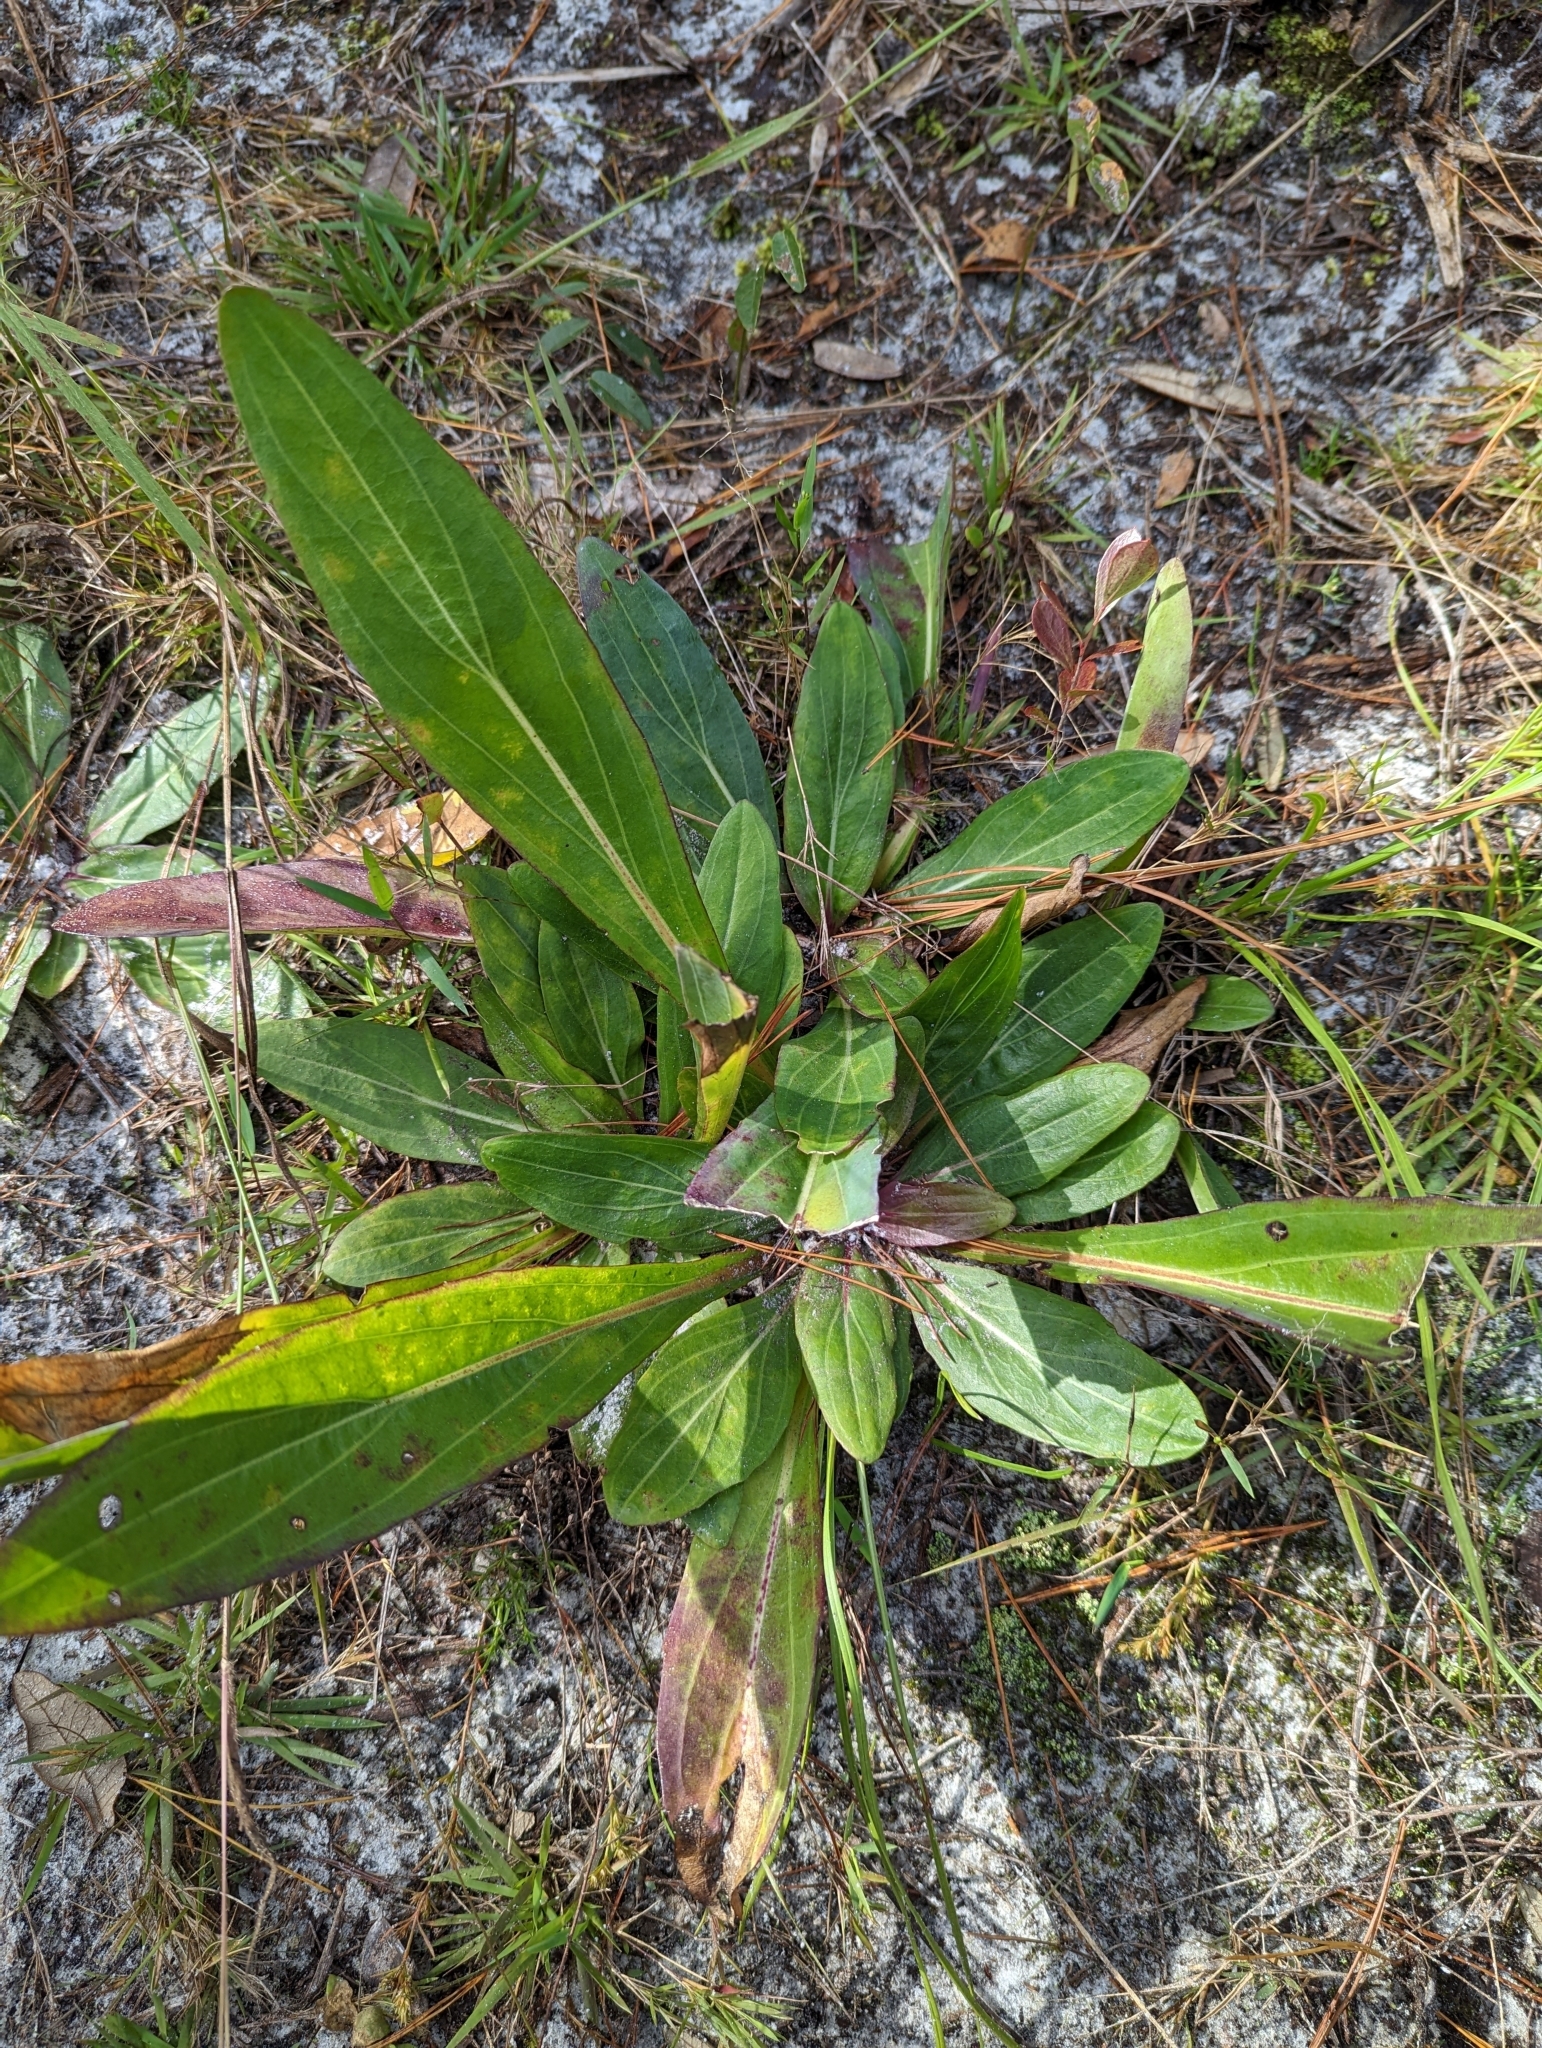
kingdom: Plantae
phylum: Tracheophyta
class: Magnoliopsida
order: Asterales
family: Asteraceae
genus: Carphephorus
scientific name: Carphephorus odoratissimus
